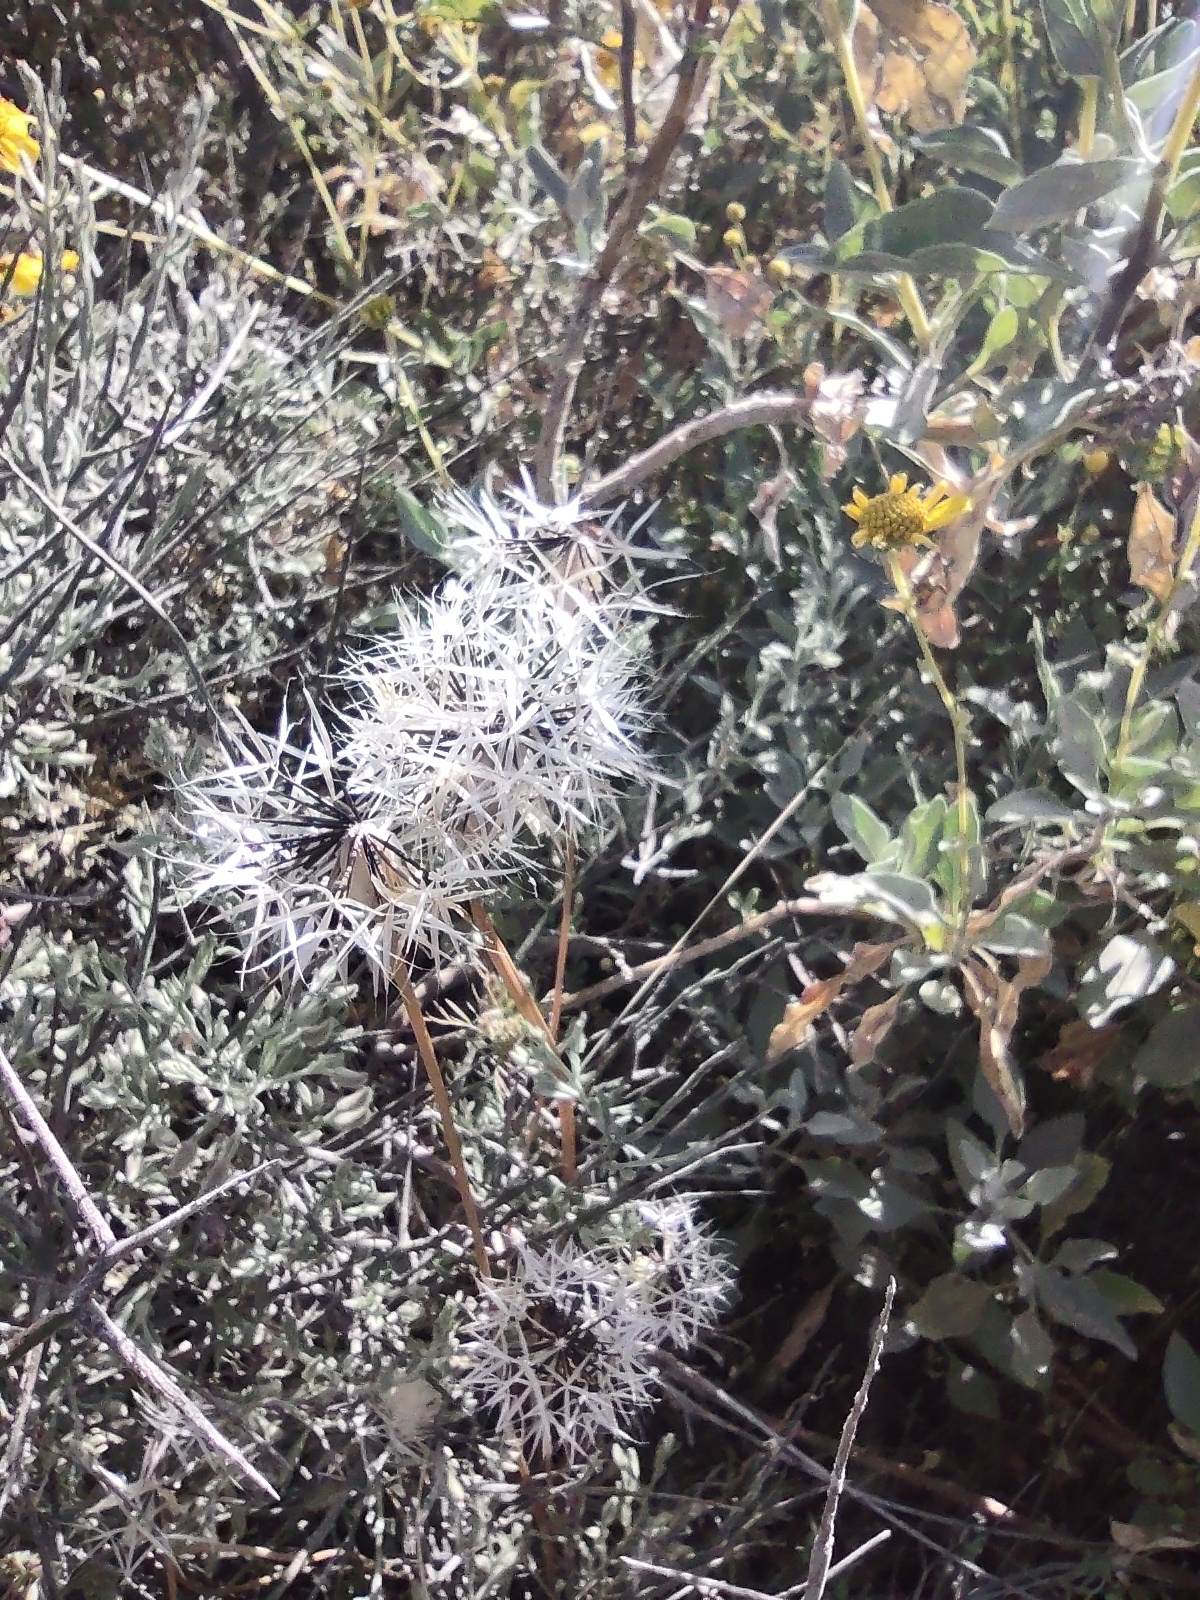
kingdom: Plantae
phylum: Tracheophyta
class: Magnoliopsida
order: Asterales
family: Asteraceae
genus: Microseris
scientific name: Microseris lindleyi
